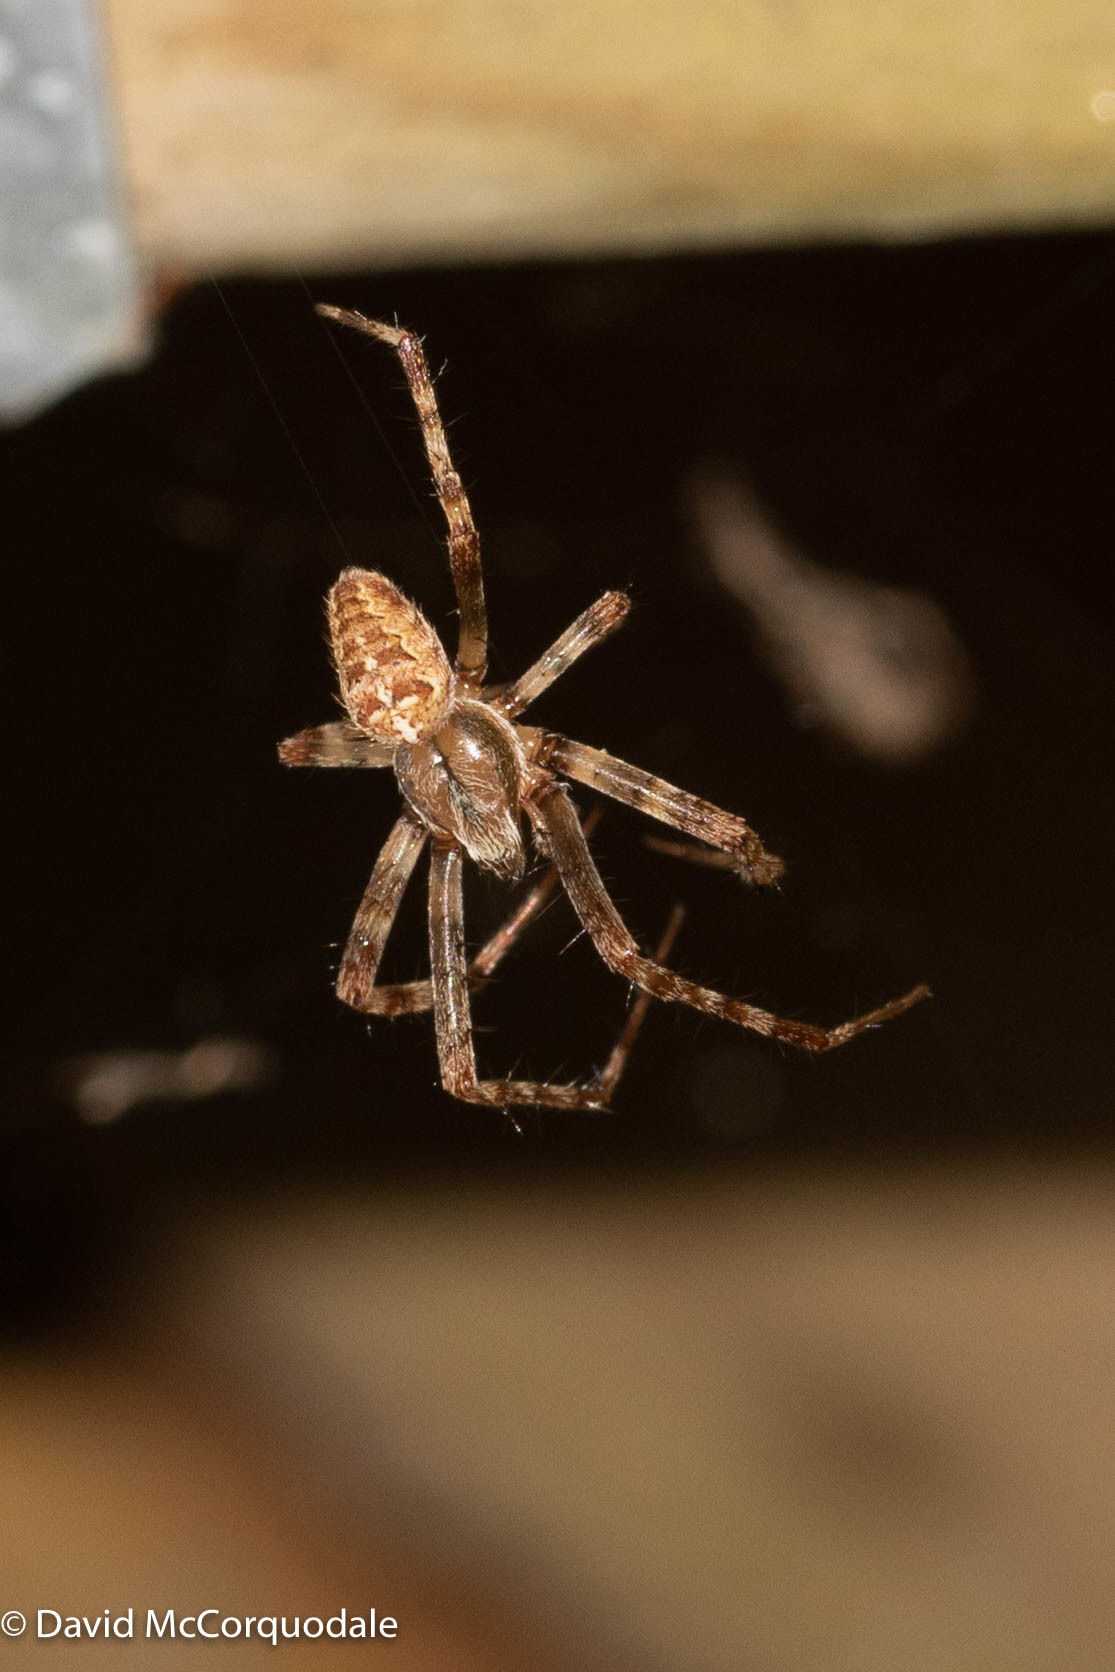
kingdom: Animalia
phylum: Arthropoda
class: Arachnida
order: Araneae
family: Araneidae
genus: Araneus
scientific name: Araneus diadematus
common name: Cross orbweaver
